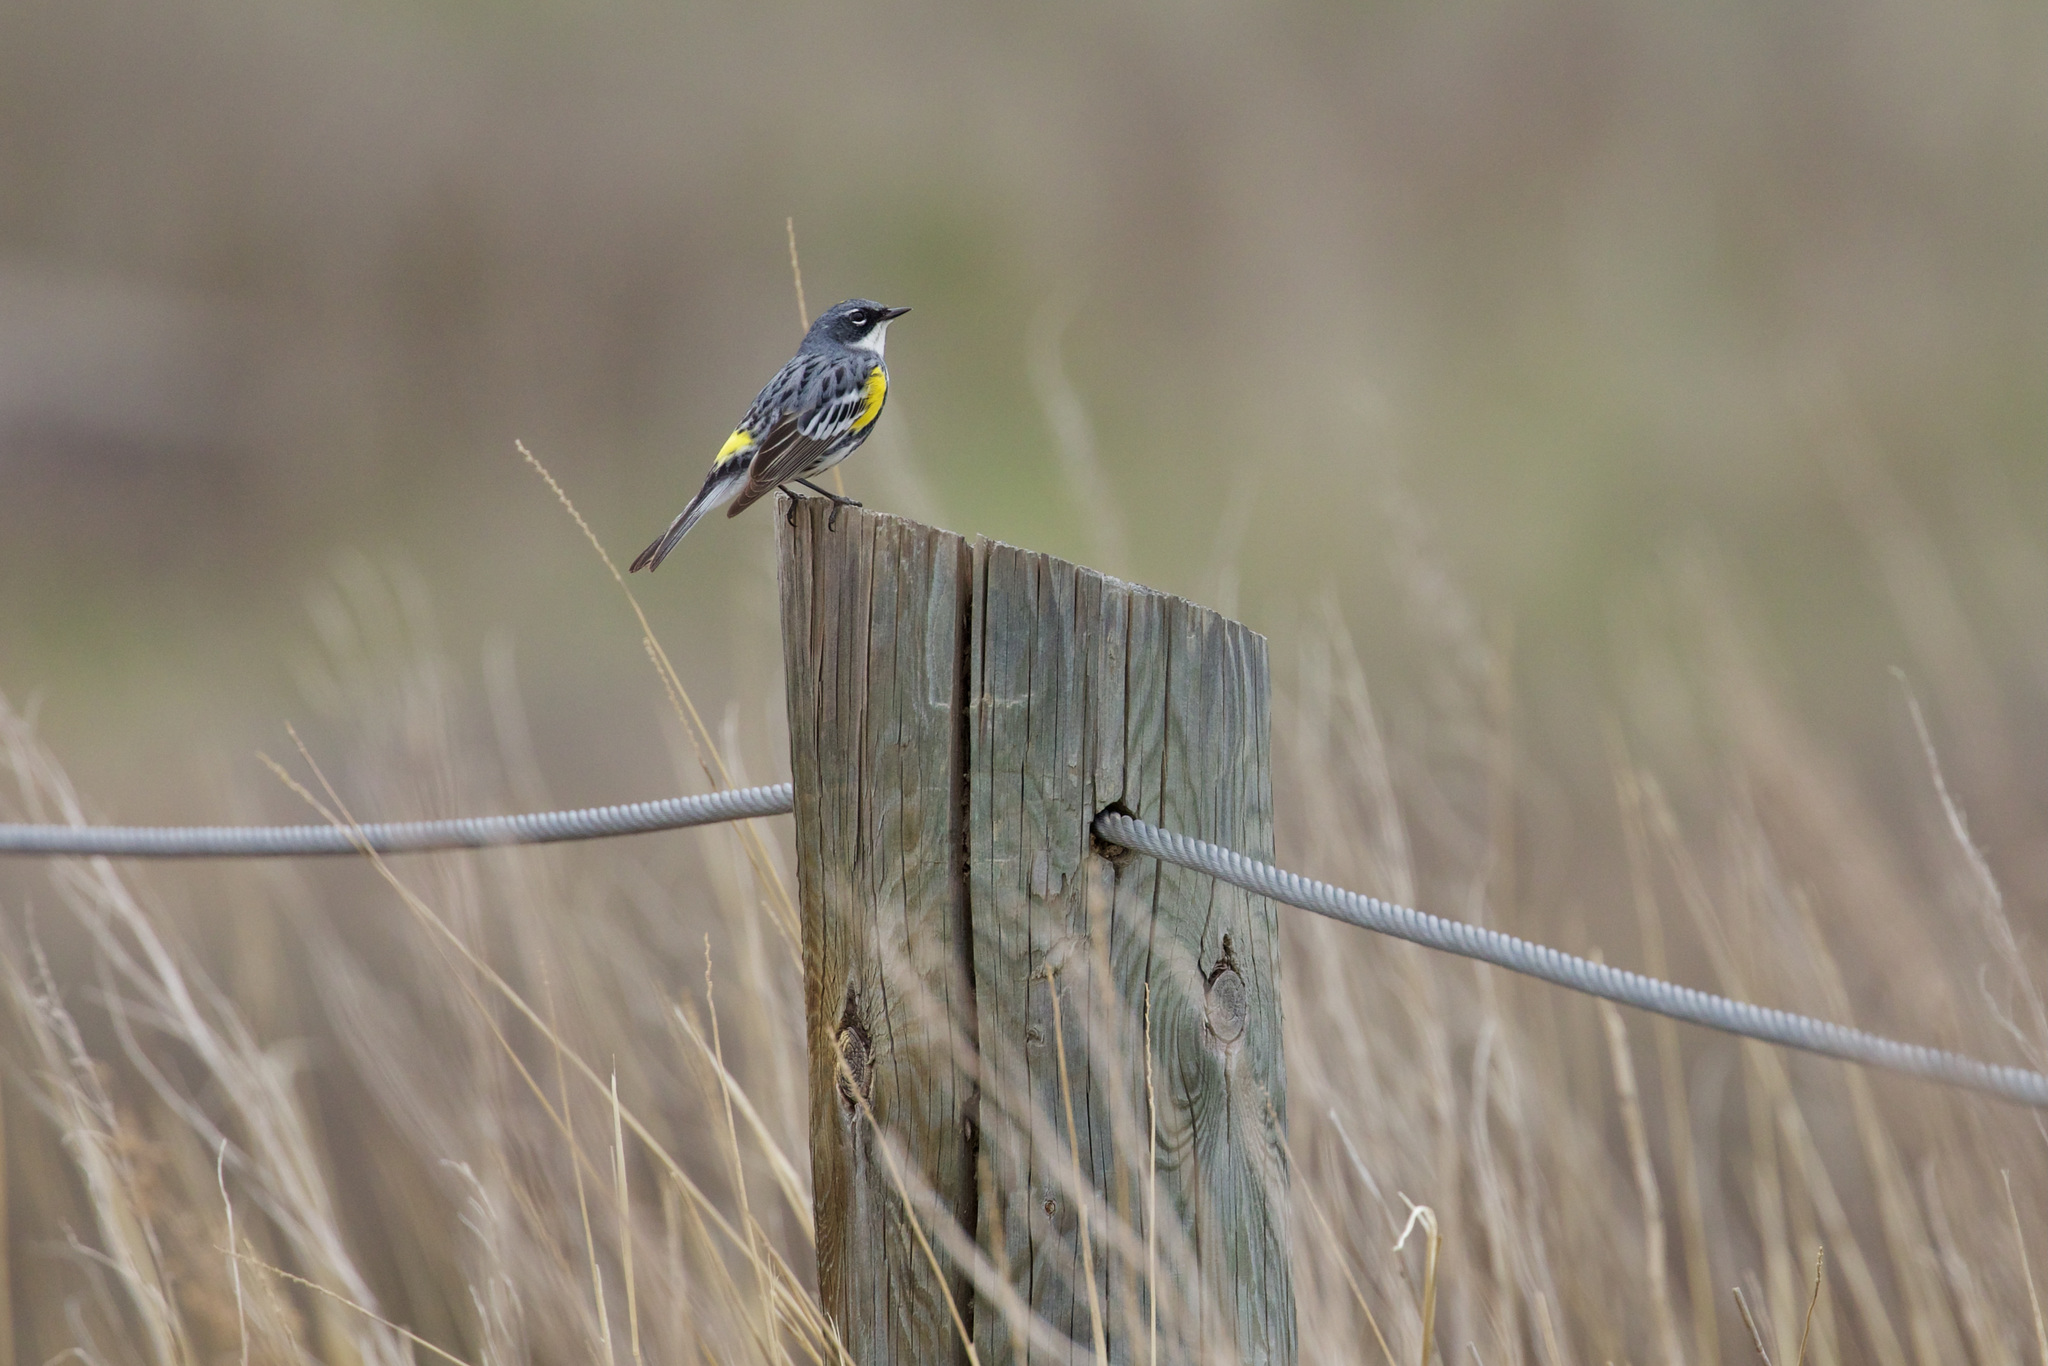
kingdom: Animalia
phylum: Chordata
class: Aves
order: Passeriformes
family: Parulidae
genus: Setophaga
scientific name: Setophaga coronata
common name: Myrtle warbler
